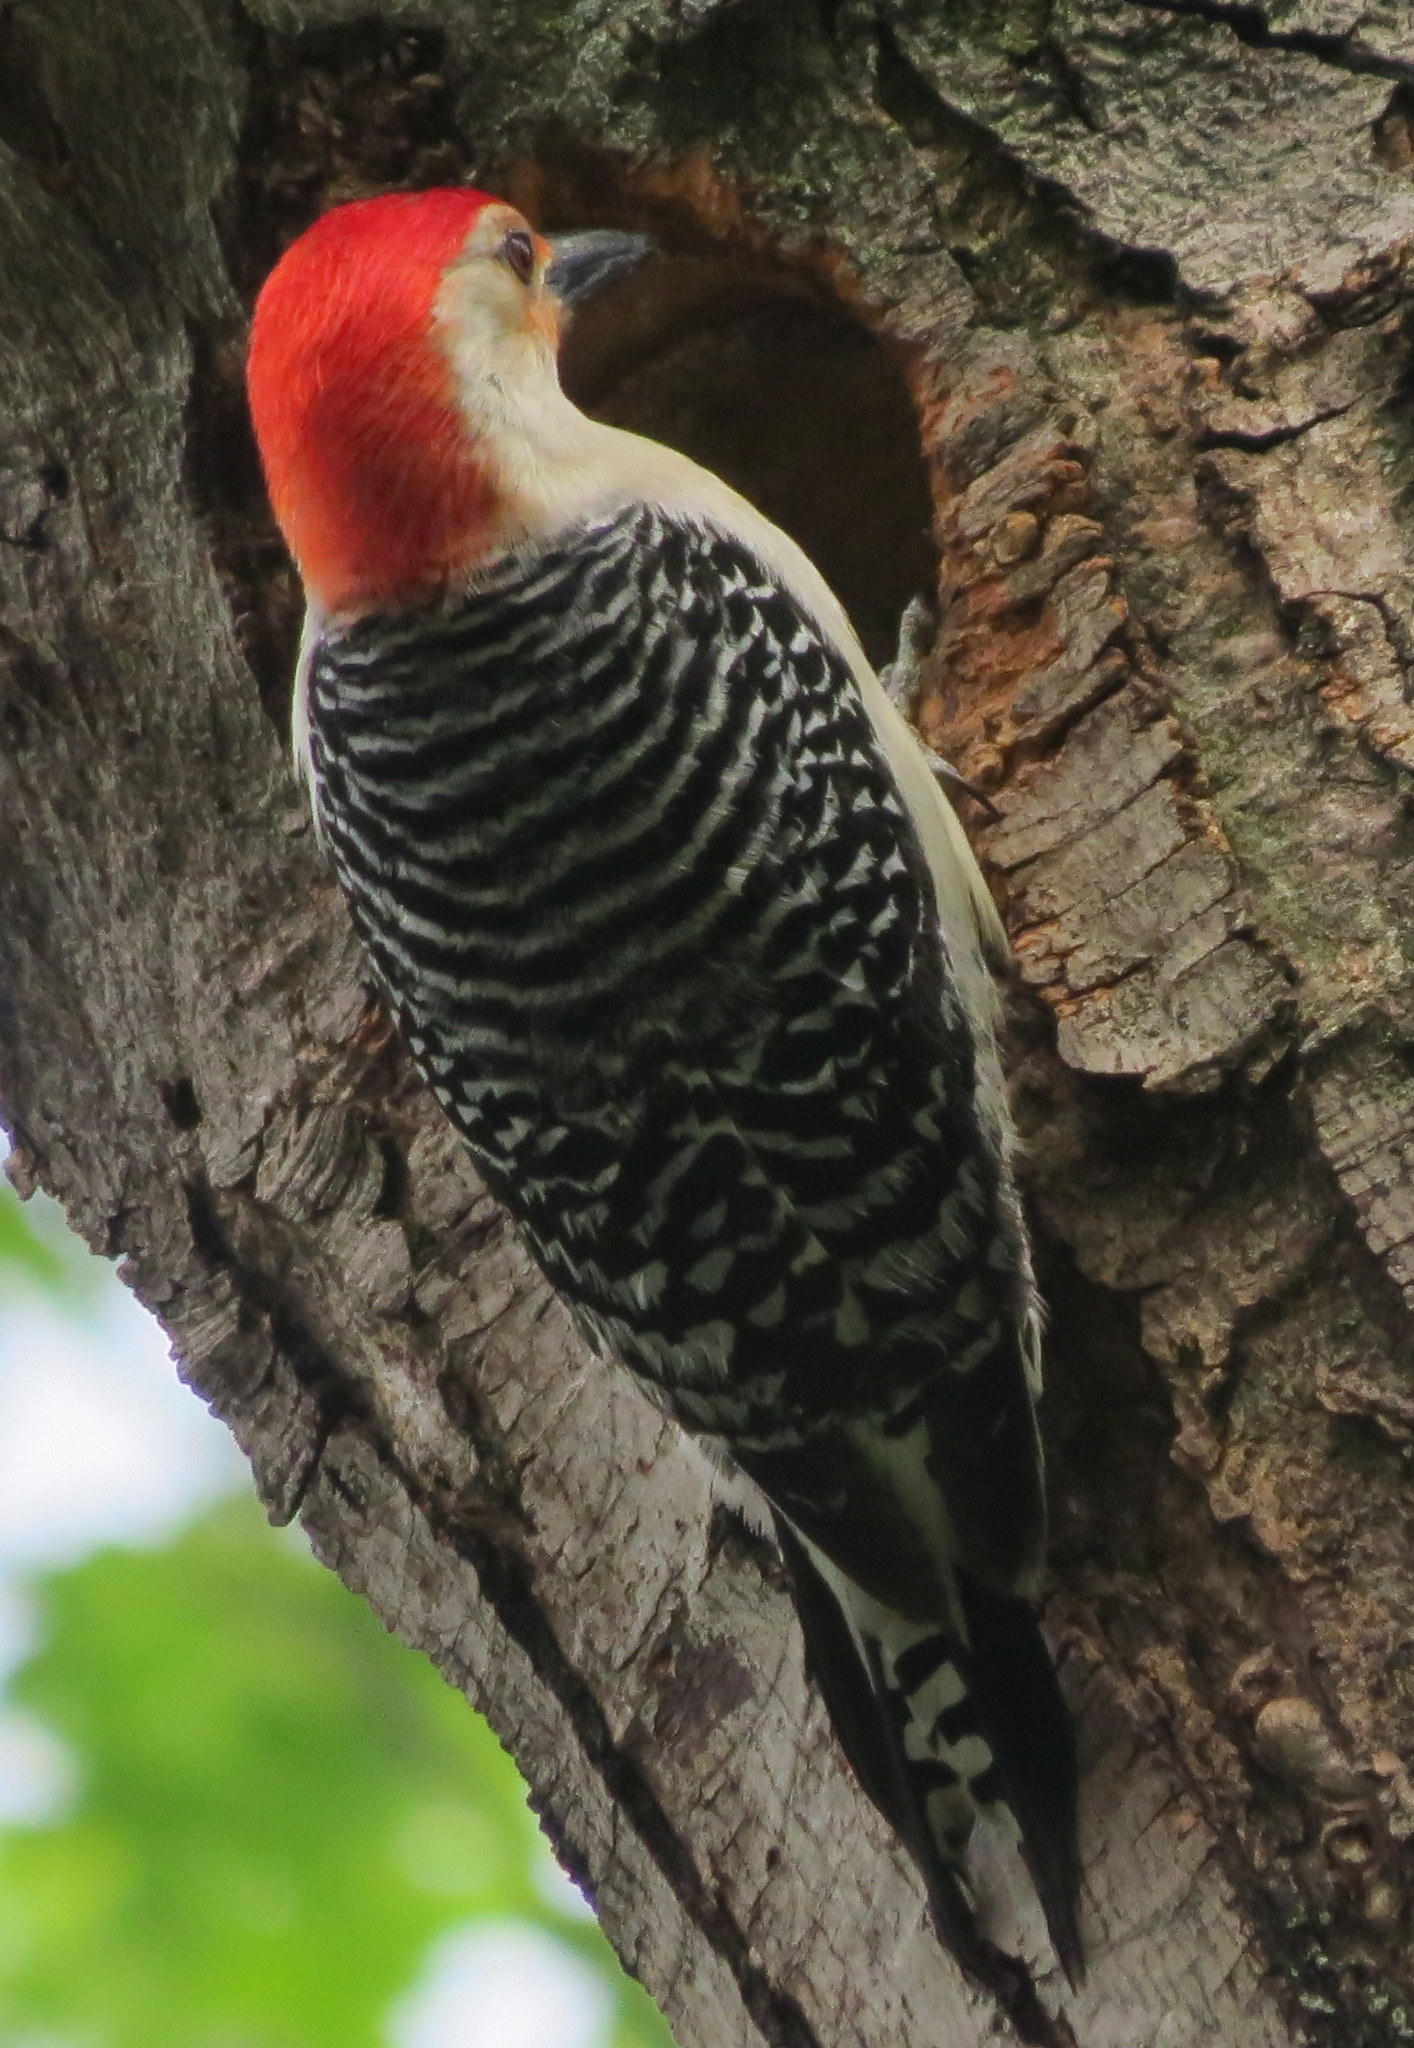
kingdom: Animalia
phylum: Chordata
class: Aves
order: Piciformes
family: Picidae
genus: Melanerpes
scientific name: Melanerpes carolinus
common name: Red-bellied woodpecker
